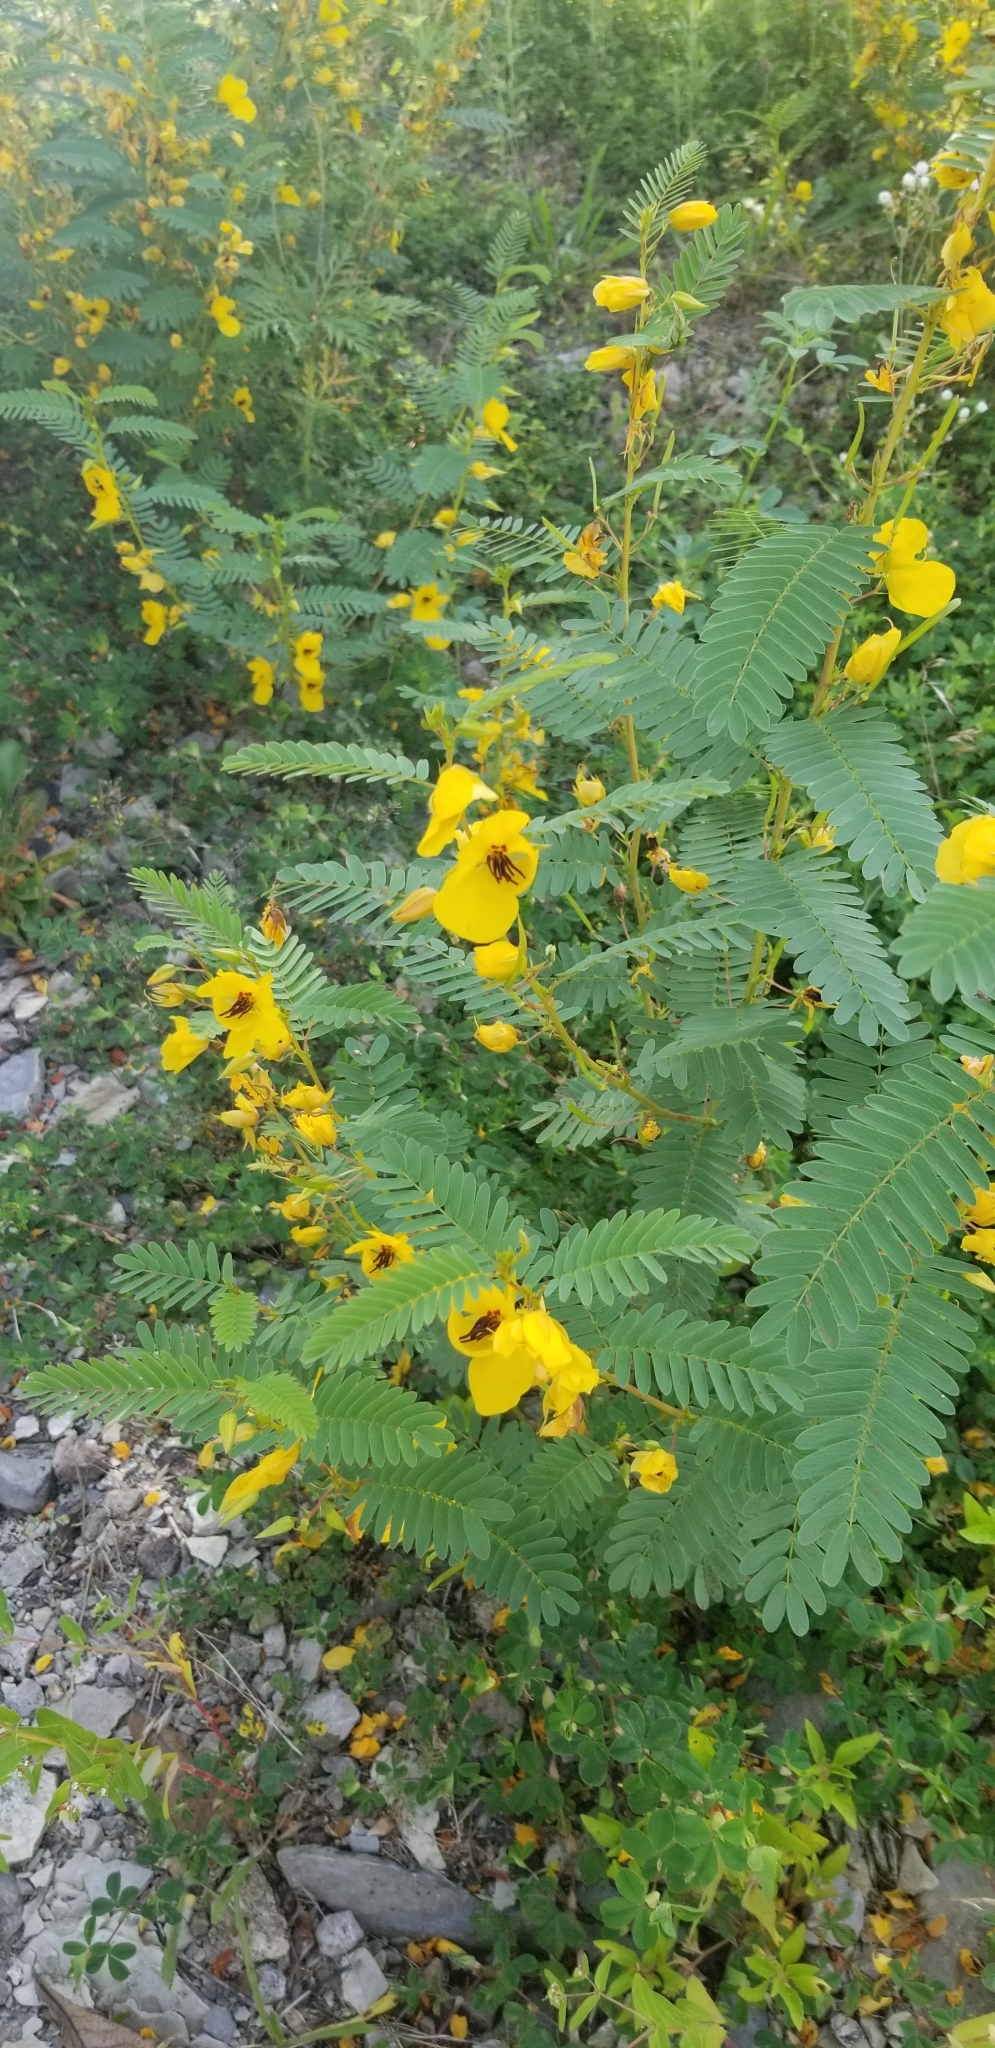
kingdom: Plantae
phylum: Tracheophyta
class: Magnoliopsida
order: Fabales
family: Fabaceae
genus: Chamaecrista
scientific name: Chamaecrista fasciculata
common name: Golden cassia
